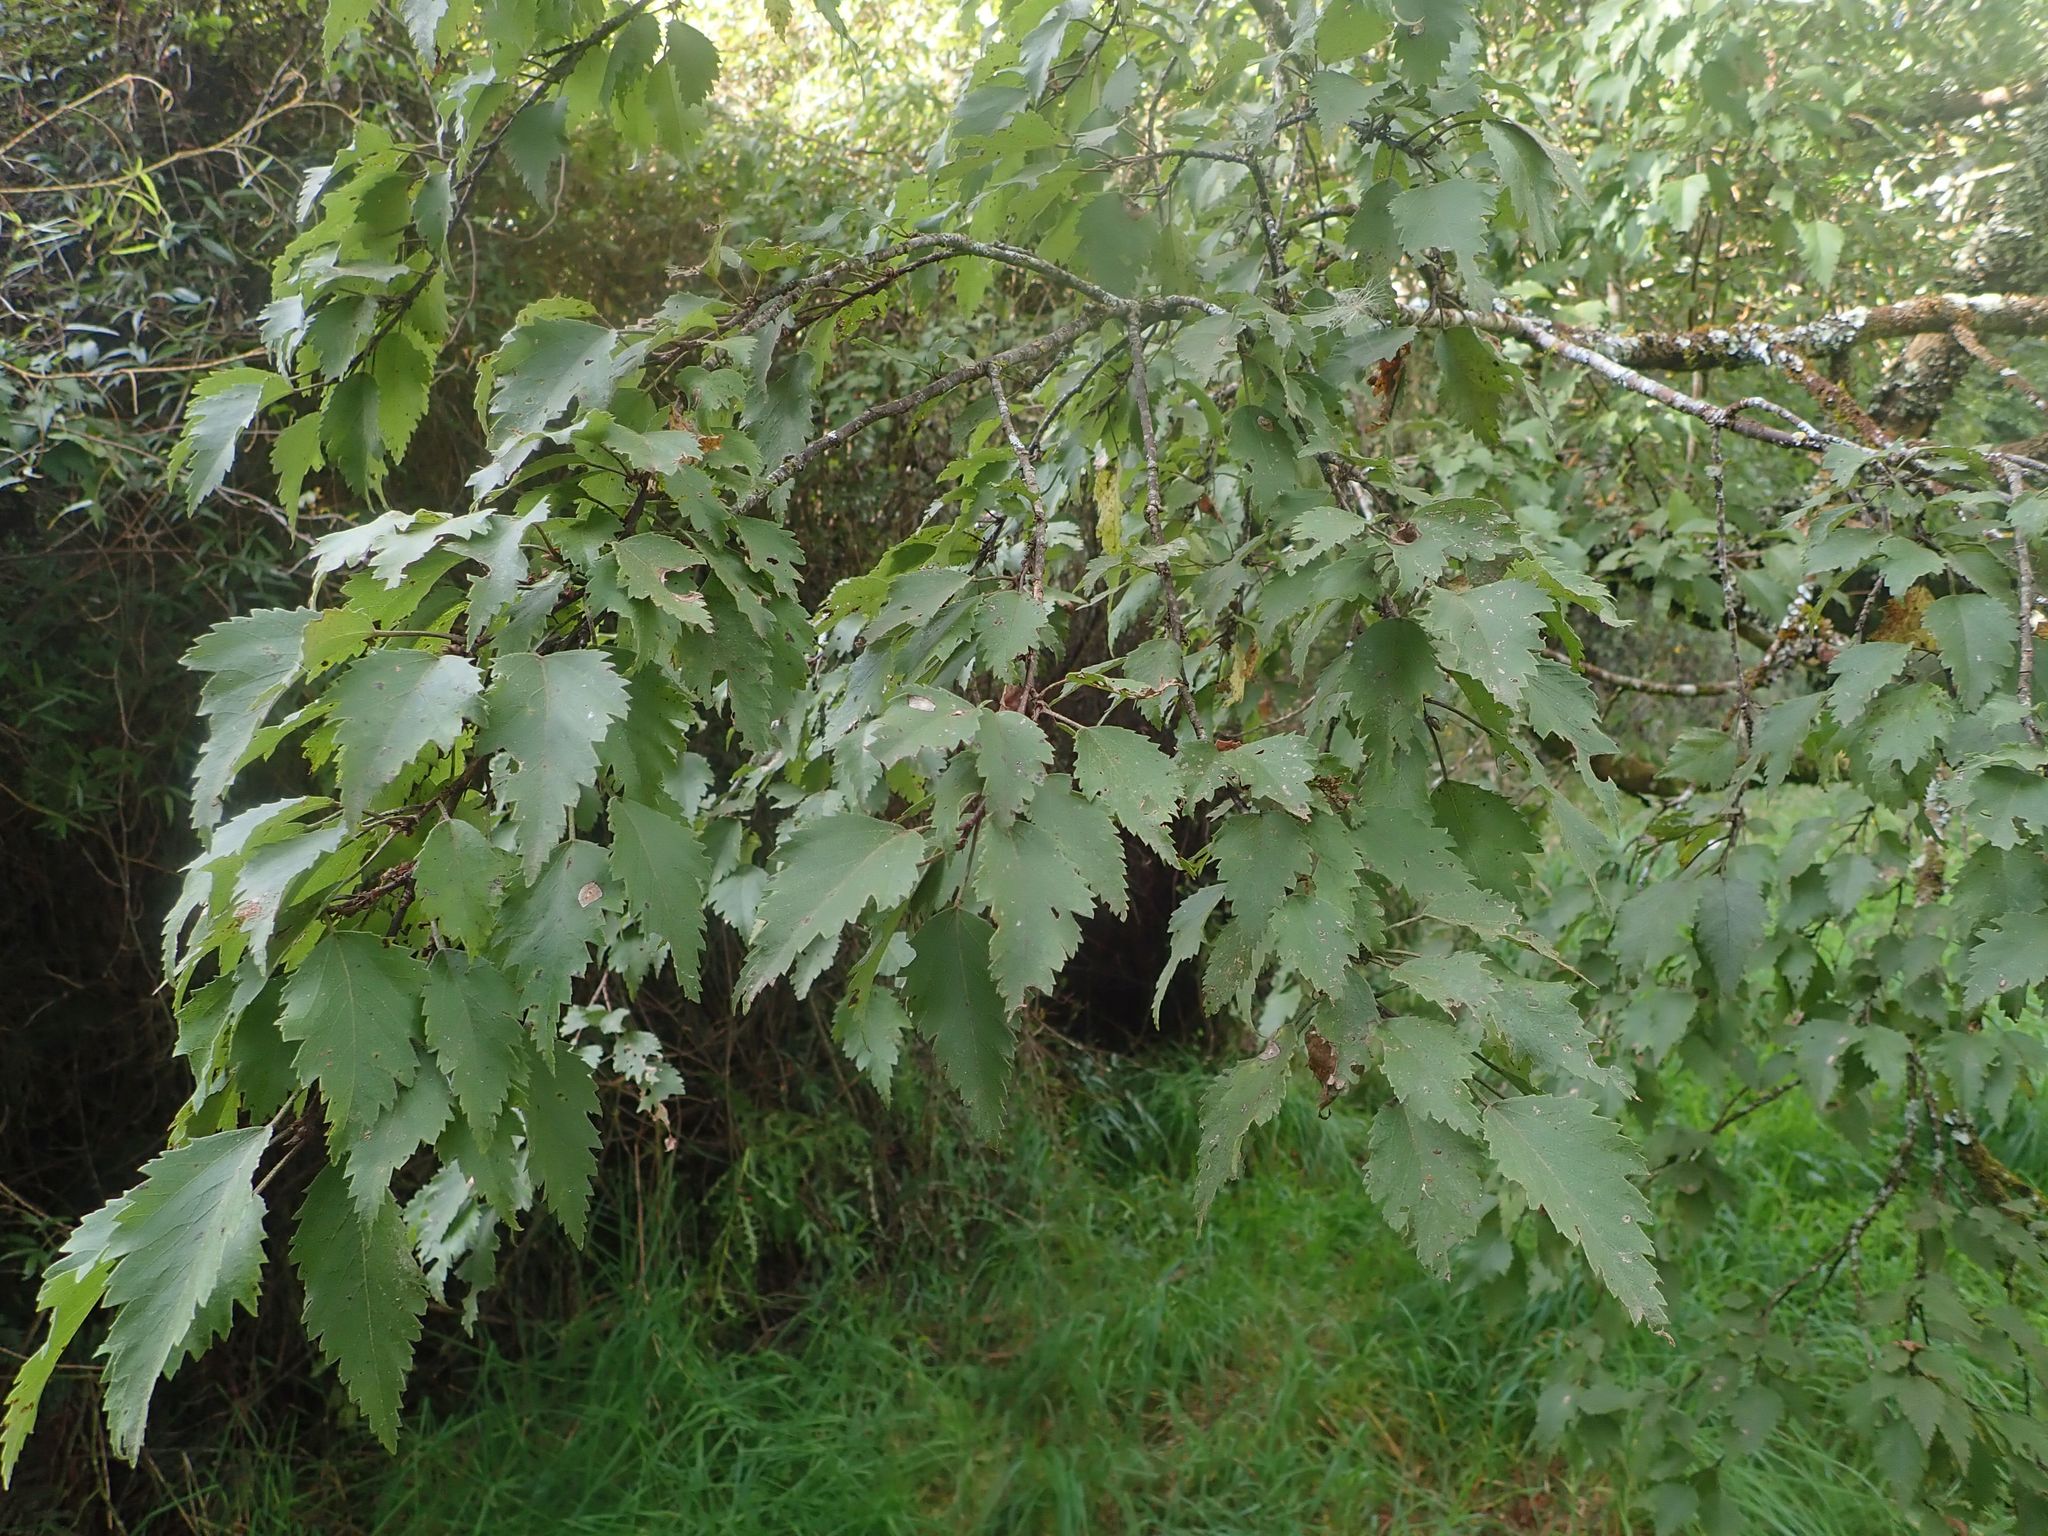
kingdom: Plantae
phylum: Tracheophyta
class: Magnoliopsida
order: Malvales
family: Malvaceae
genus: Plagianthus
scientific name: Plagianthus regius
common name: Manatu
